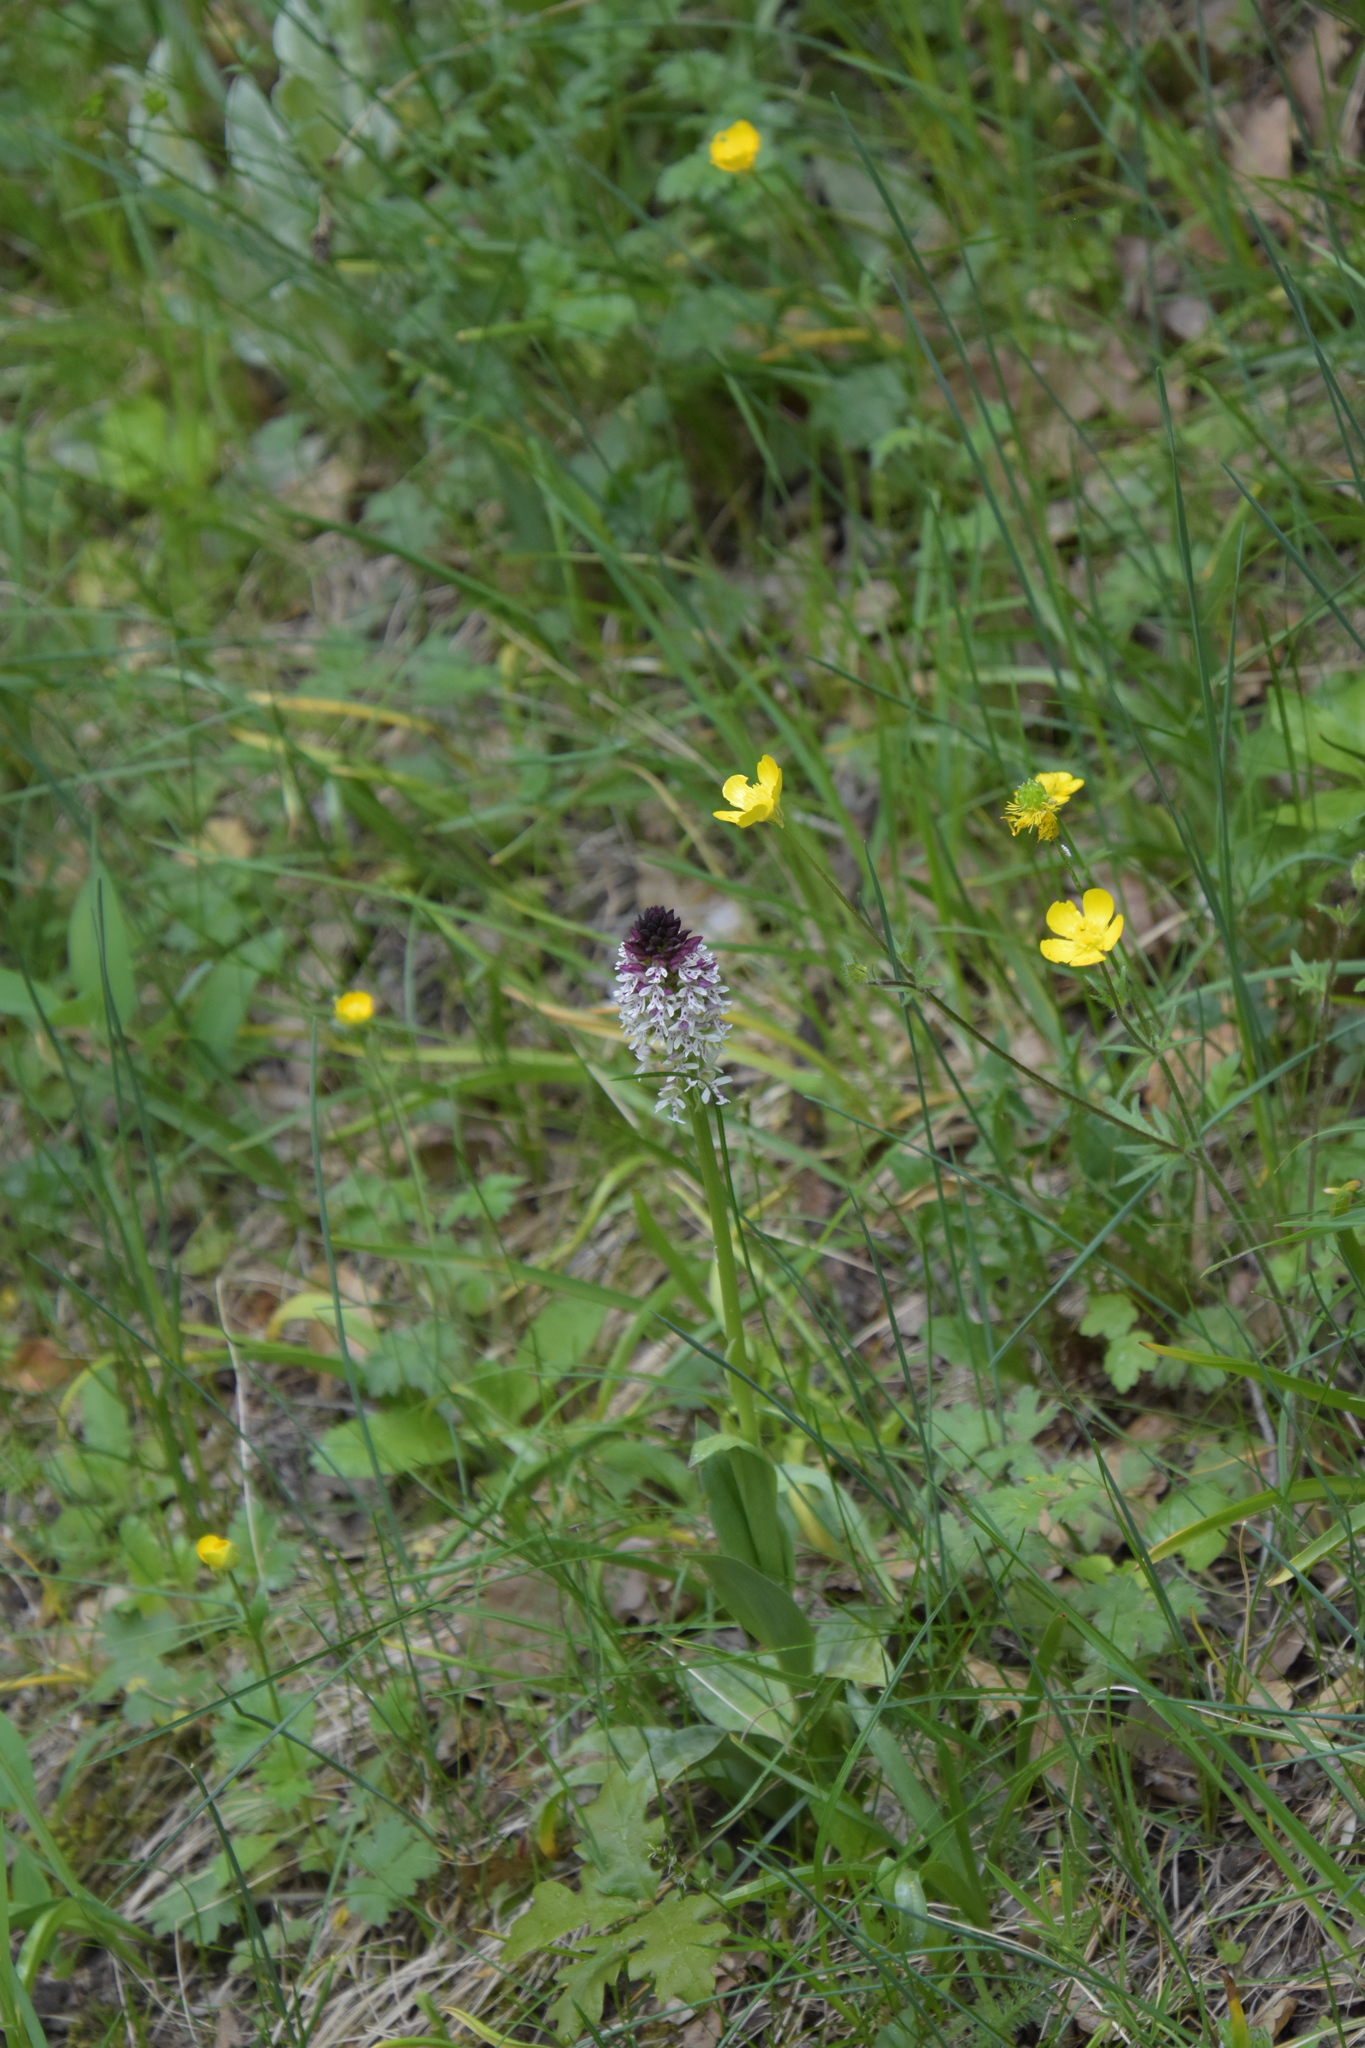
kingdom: Plantae
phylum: Tracheophyta
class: Liliopsida
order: Asparagales
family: Orchidaceae
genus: Neotinea
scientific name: Neotinea ustulata
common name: Burnt orchid
